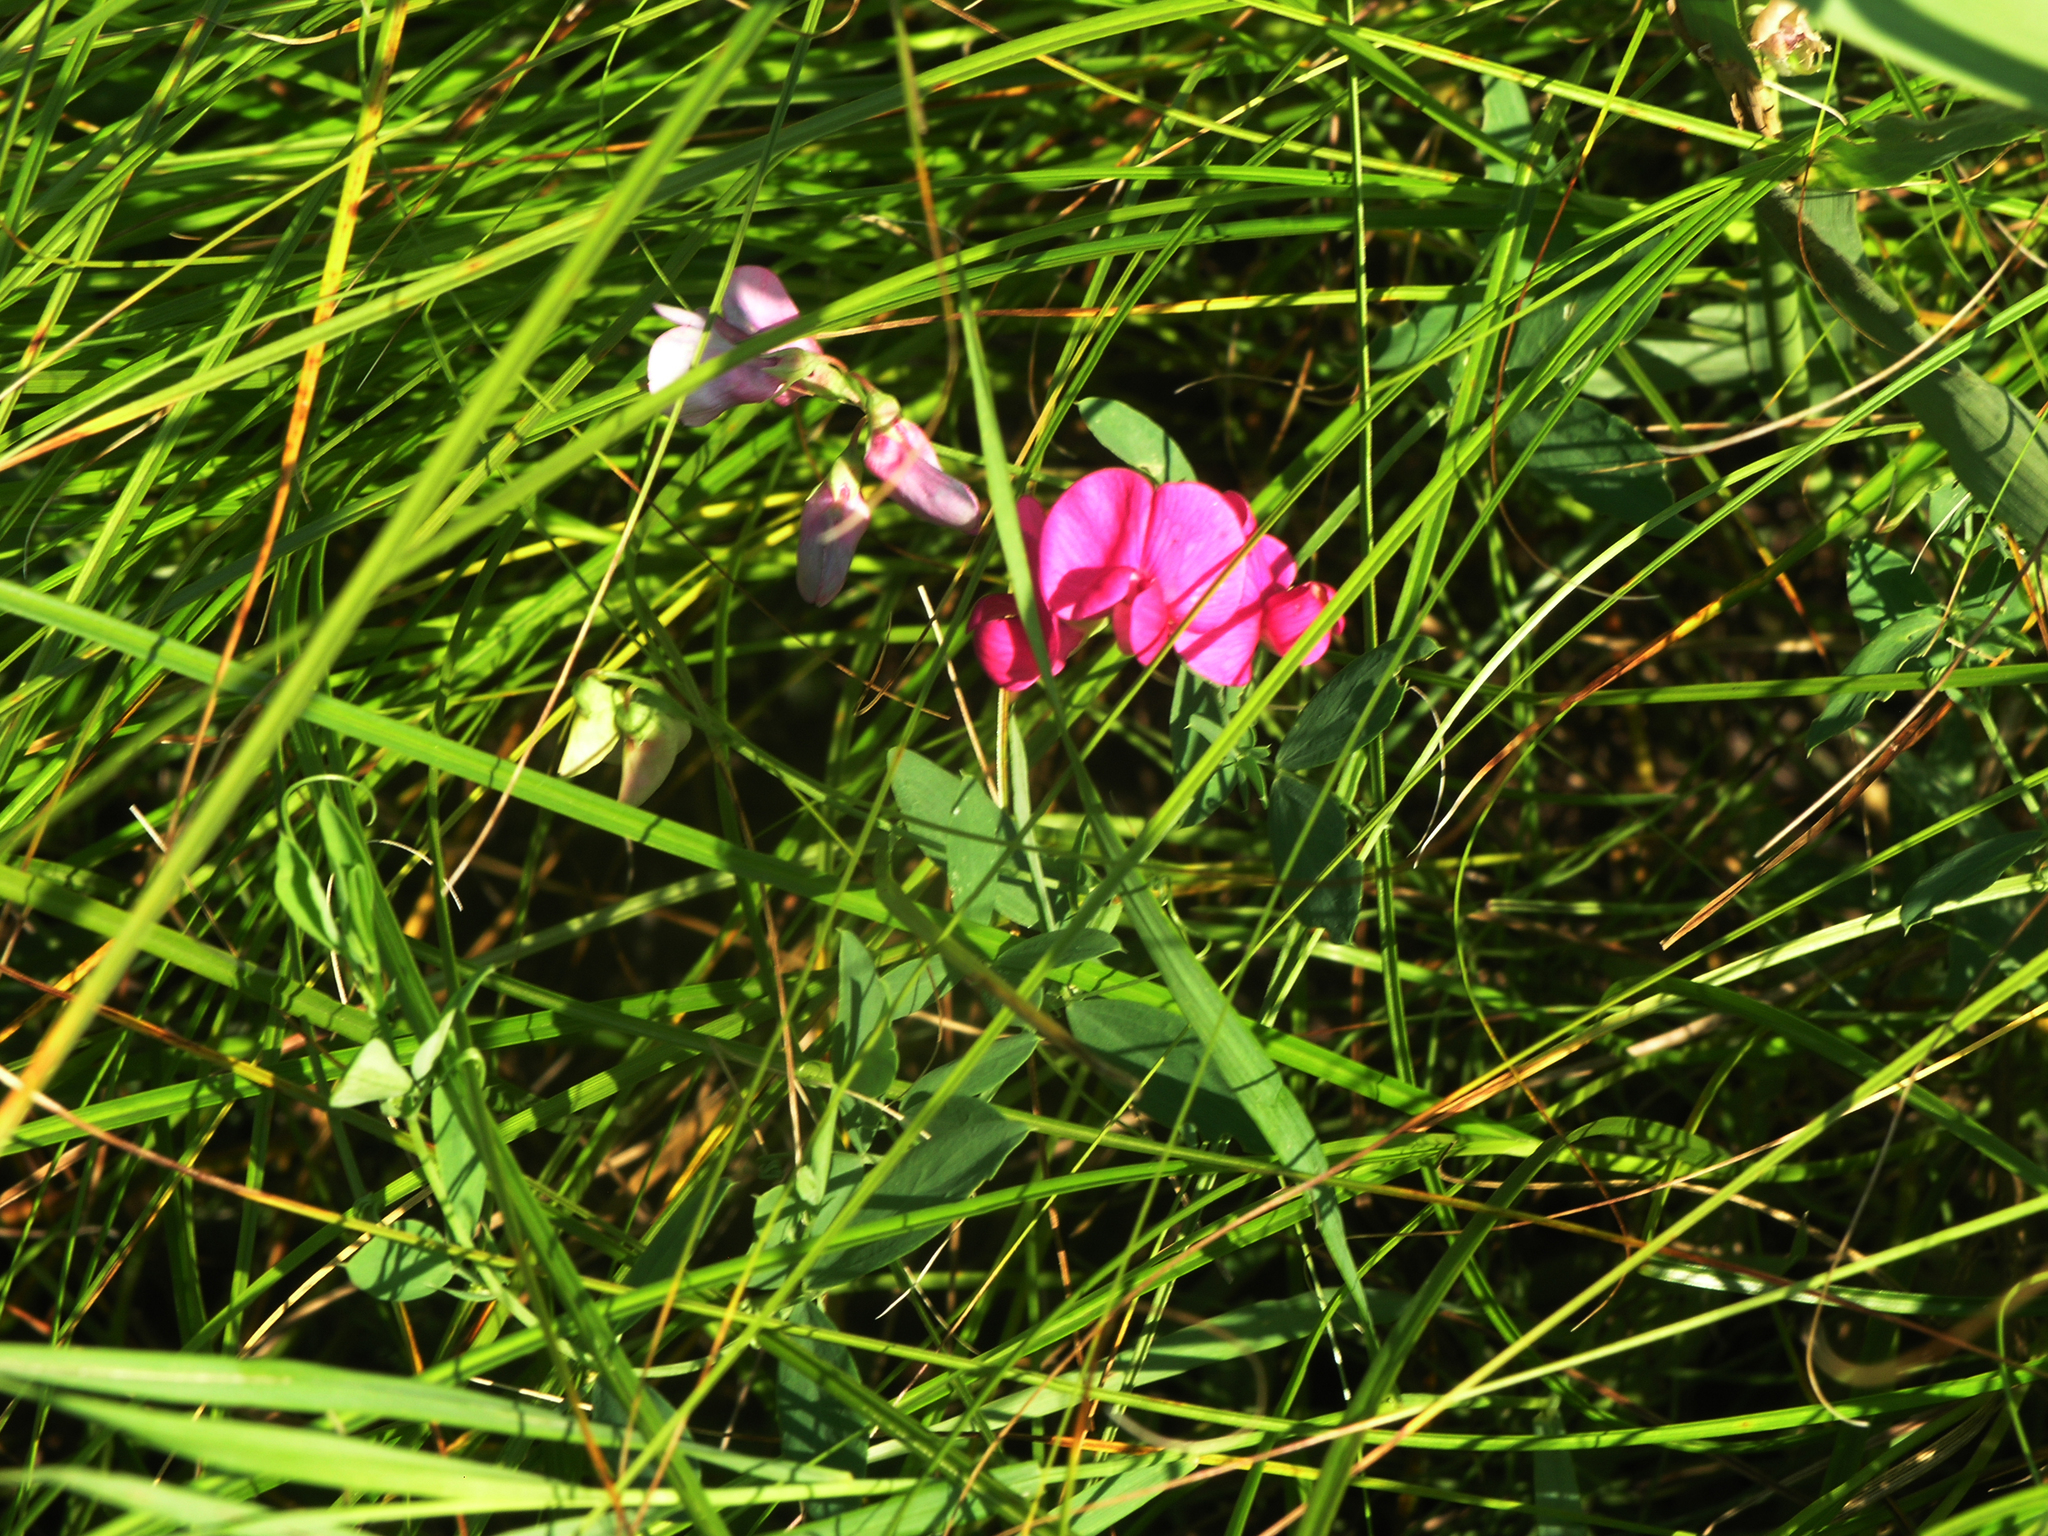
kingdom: Plantae
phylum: Tracheophyta
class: Magnoliopsida
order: Fabales
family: Fabaceae
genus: Lathyrus
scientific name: Lathyrus tuberosus
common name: Tuberous pea
